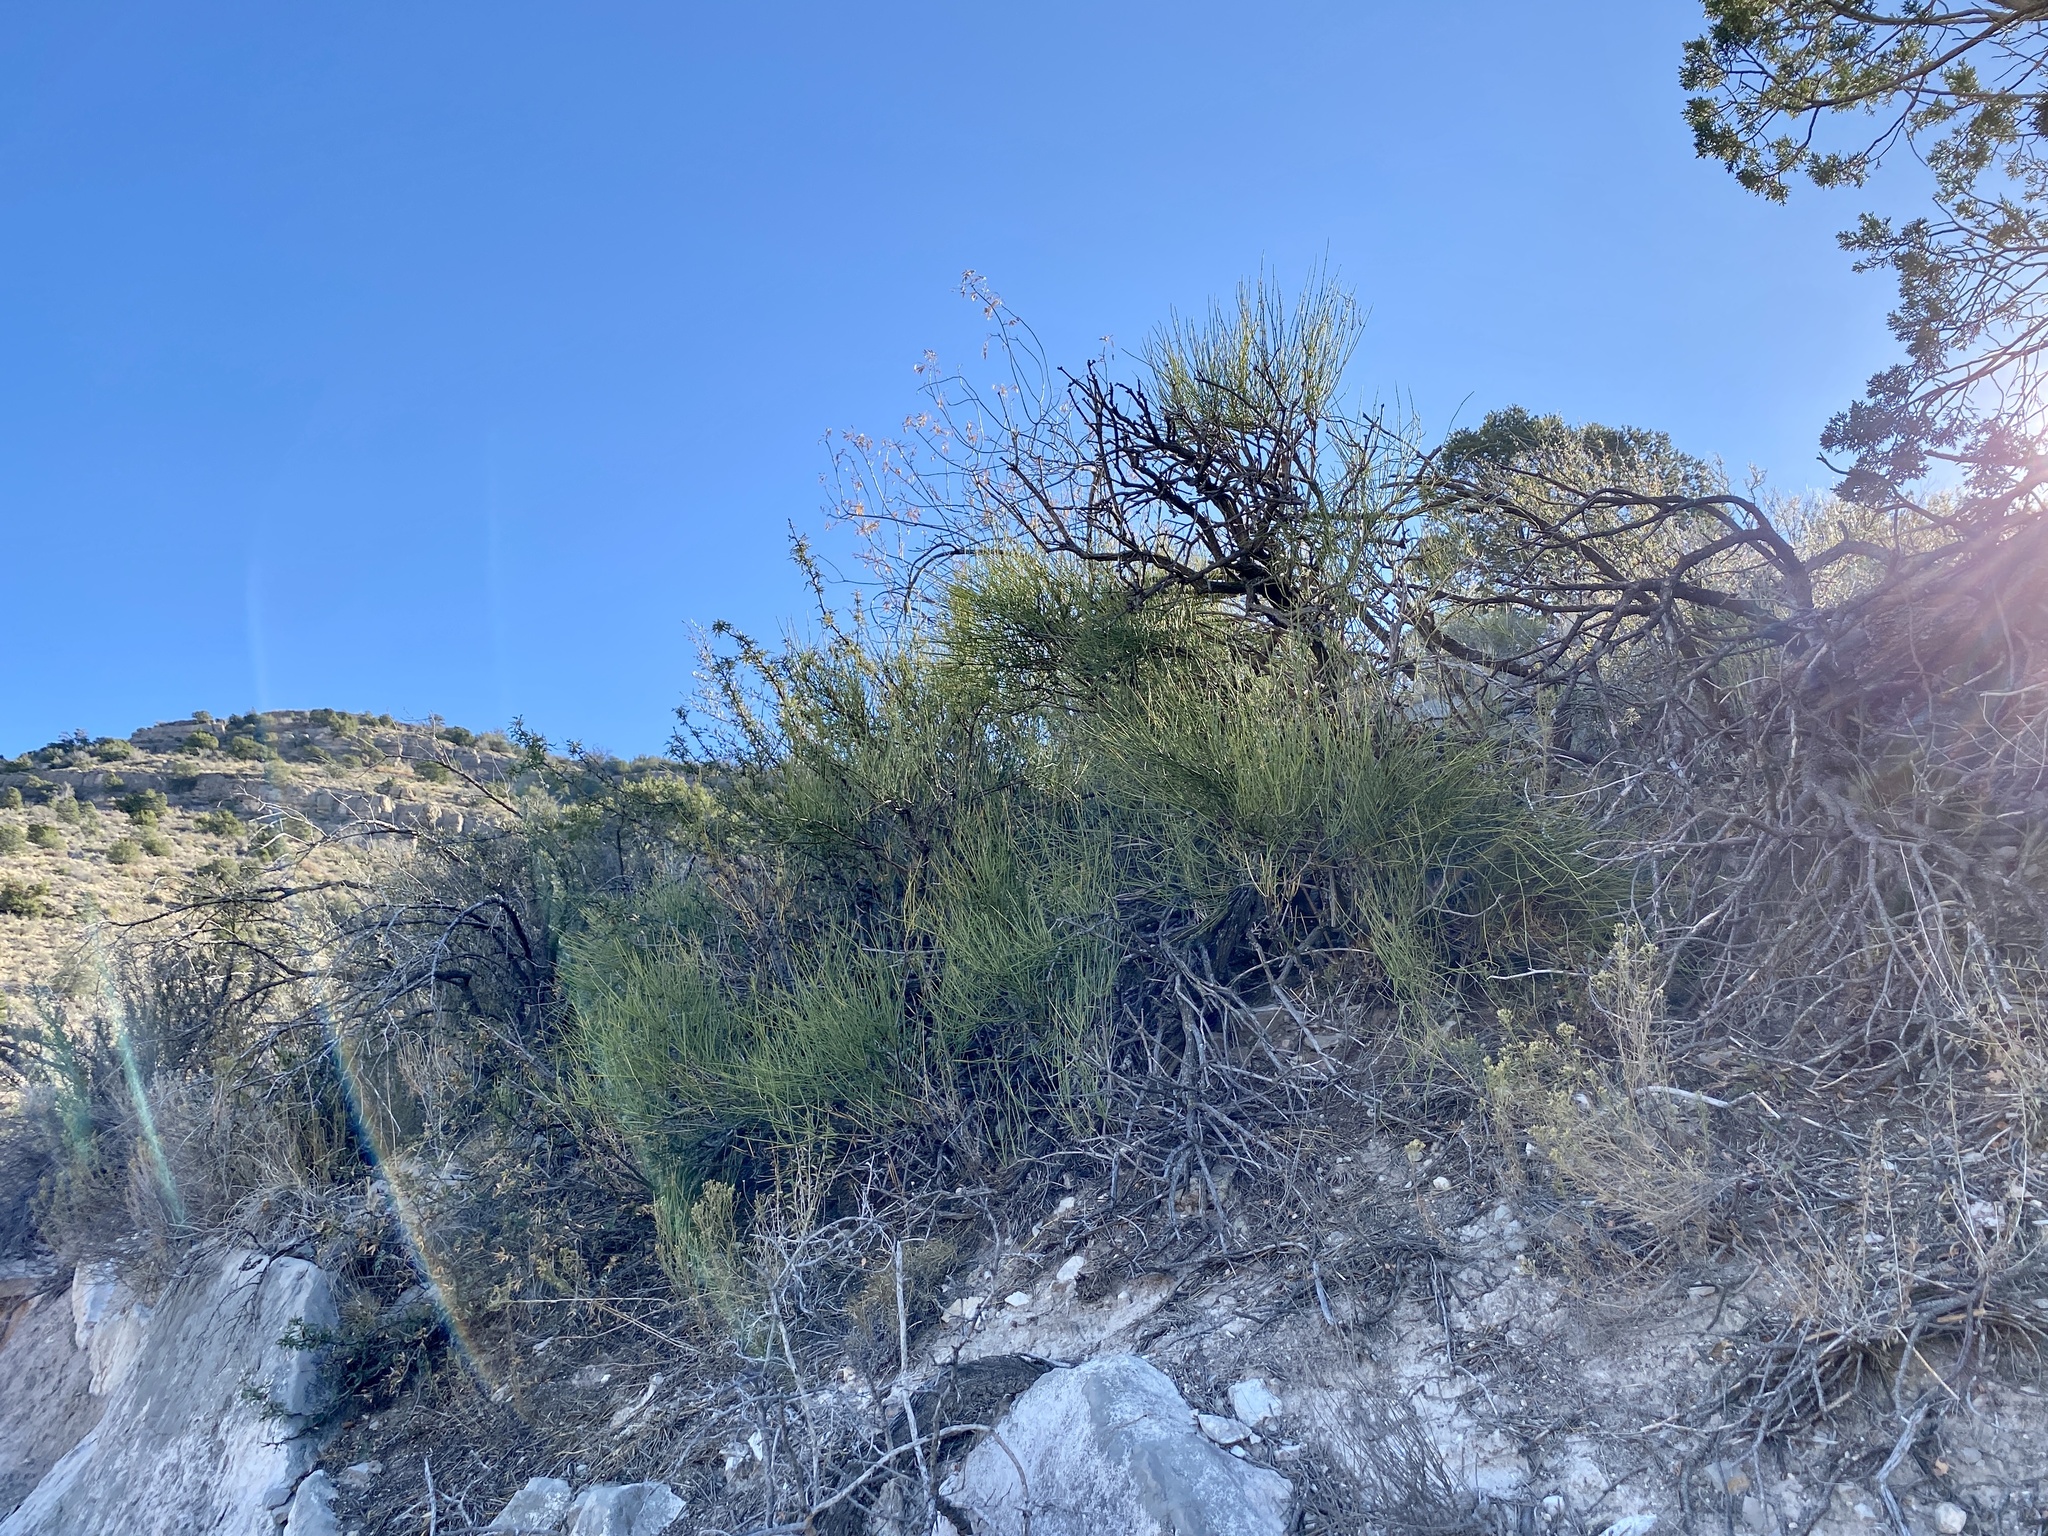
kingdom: Plantae
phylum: Tracheophyta
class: Gnetopsida
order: Ephedrales
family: Ephedraceae
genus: Ephedra
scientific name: Ephedra trifurca
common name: Mexican-tea
